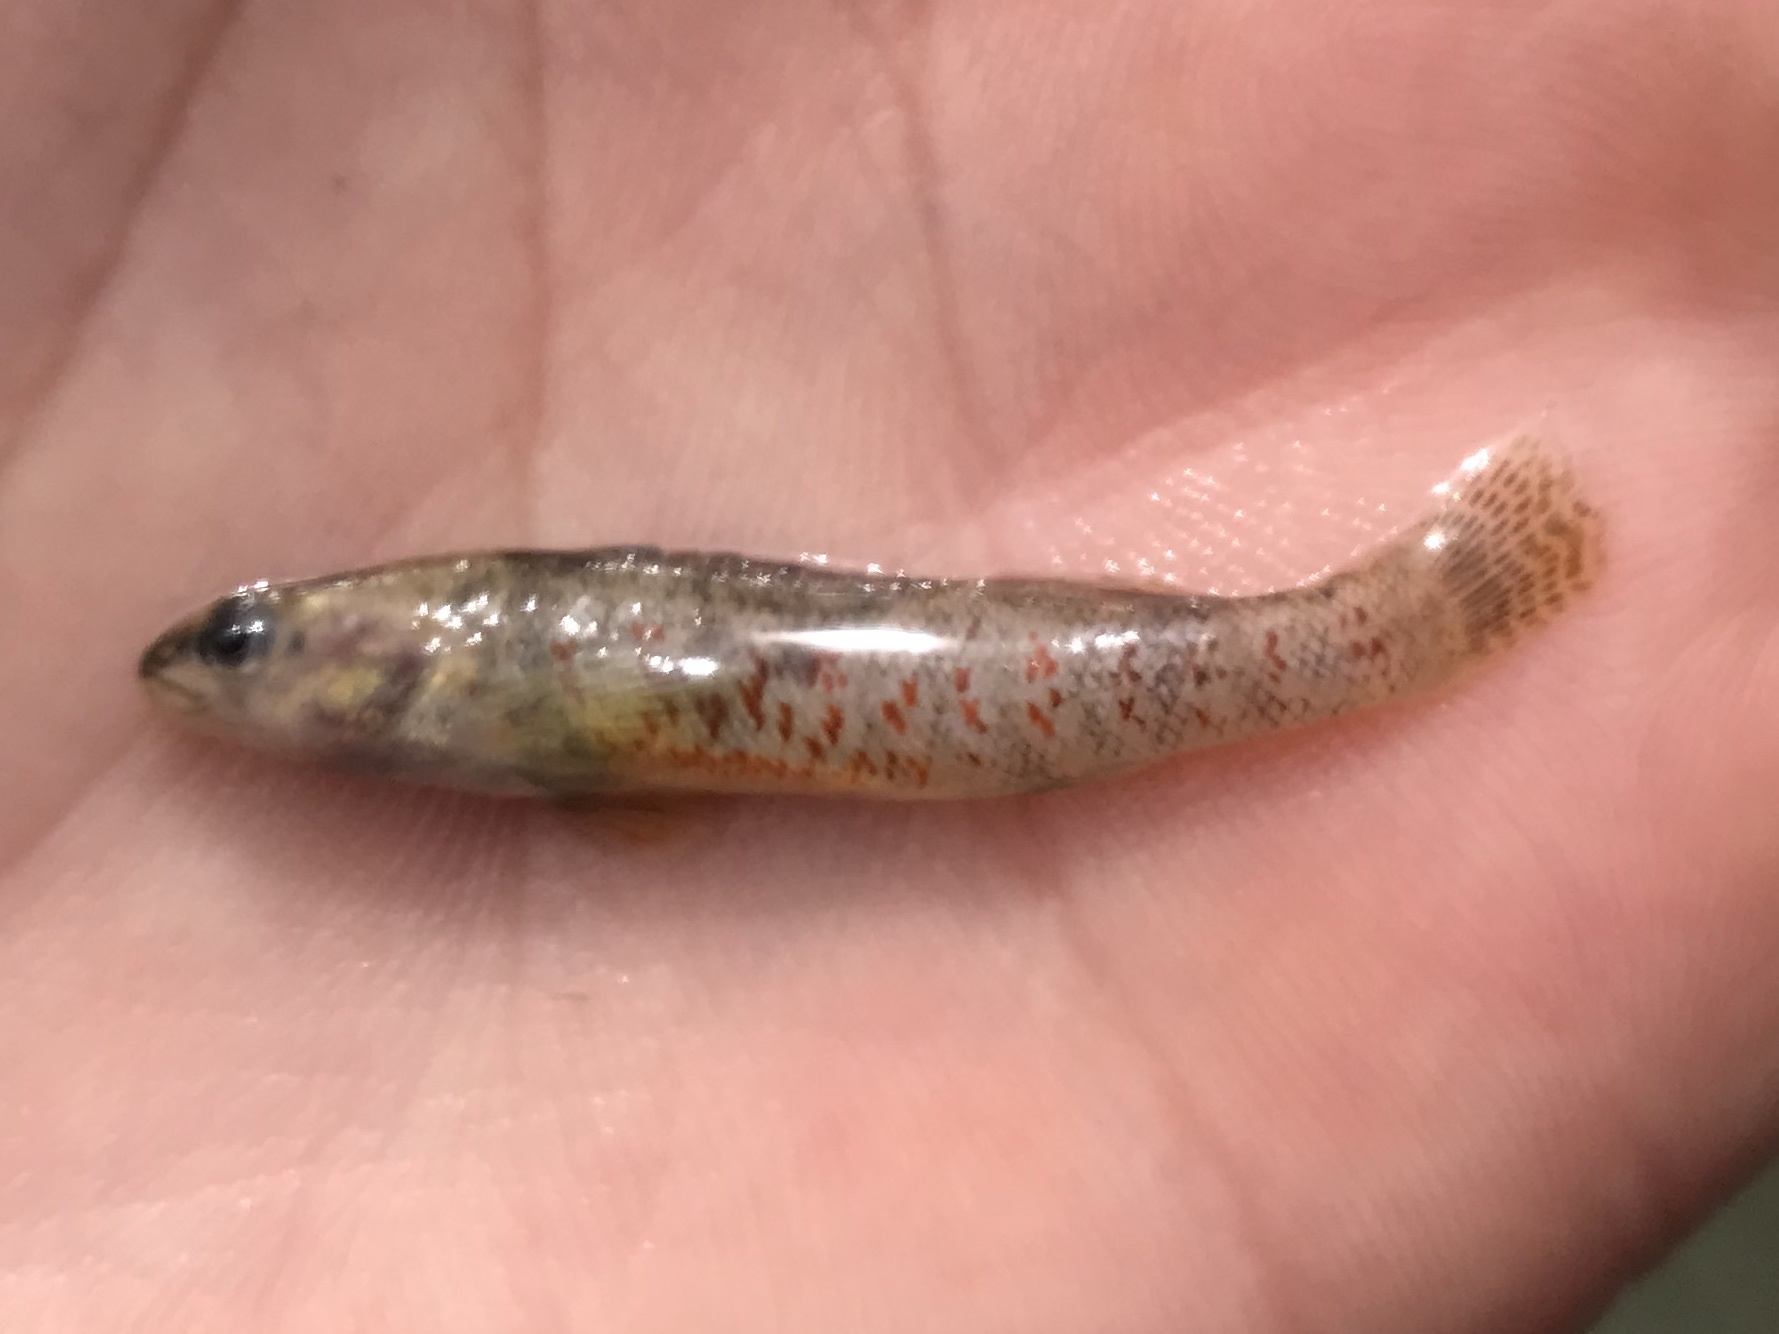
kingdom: Animalia
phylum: Chordata
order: Perciformes
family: Percidae
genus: Etheostoma
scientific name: Etheostoma lepidum
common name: Greenthroat darter
